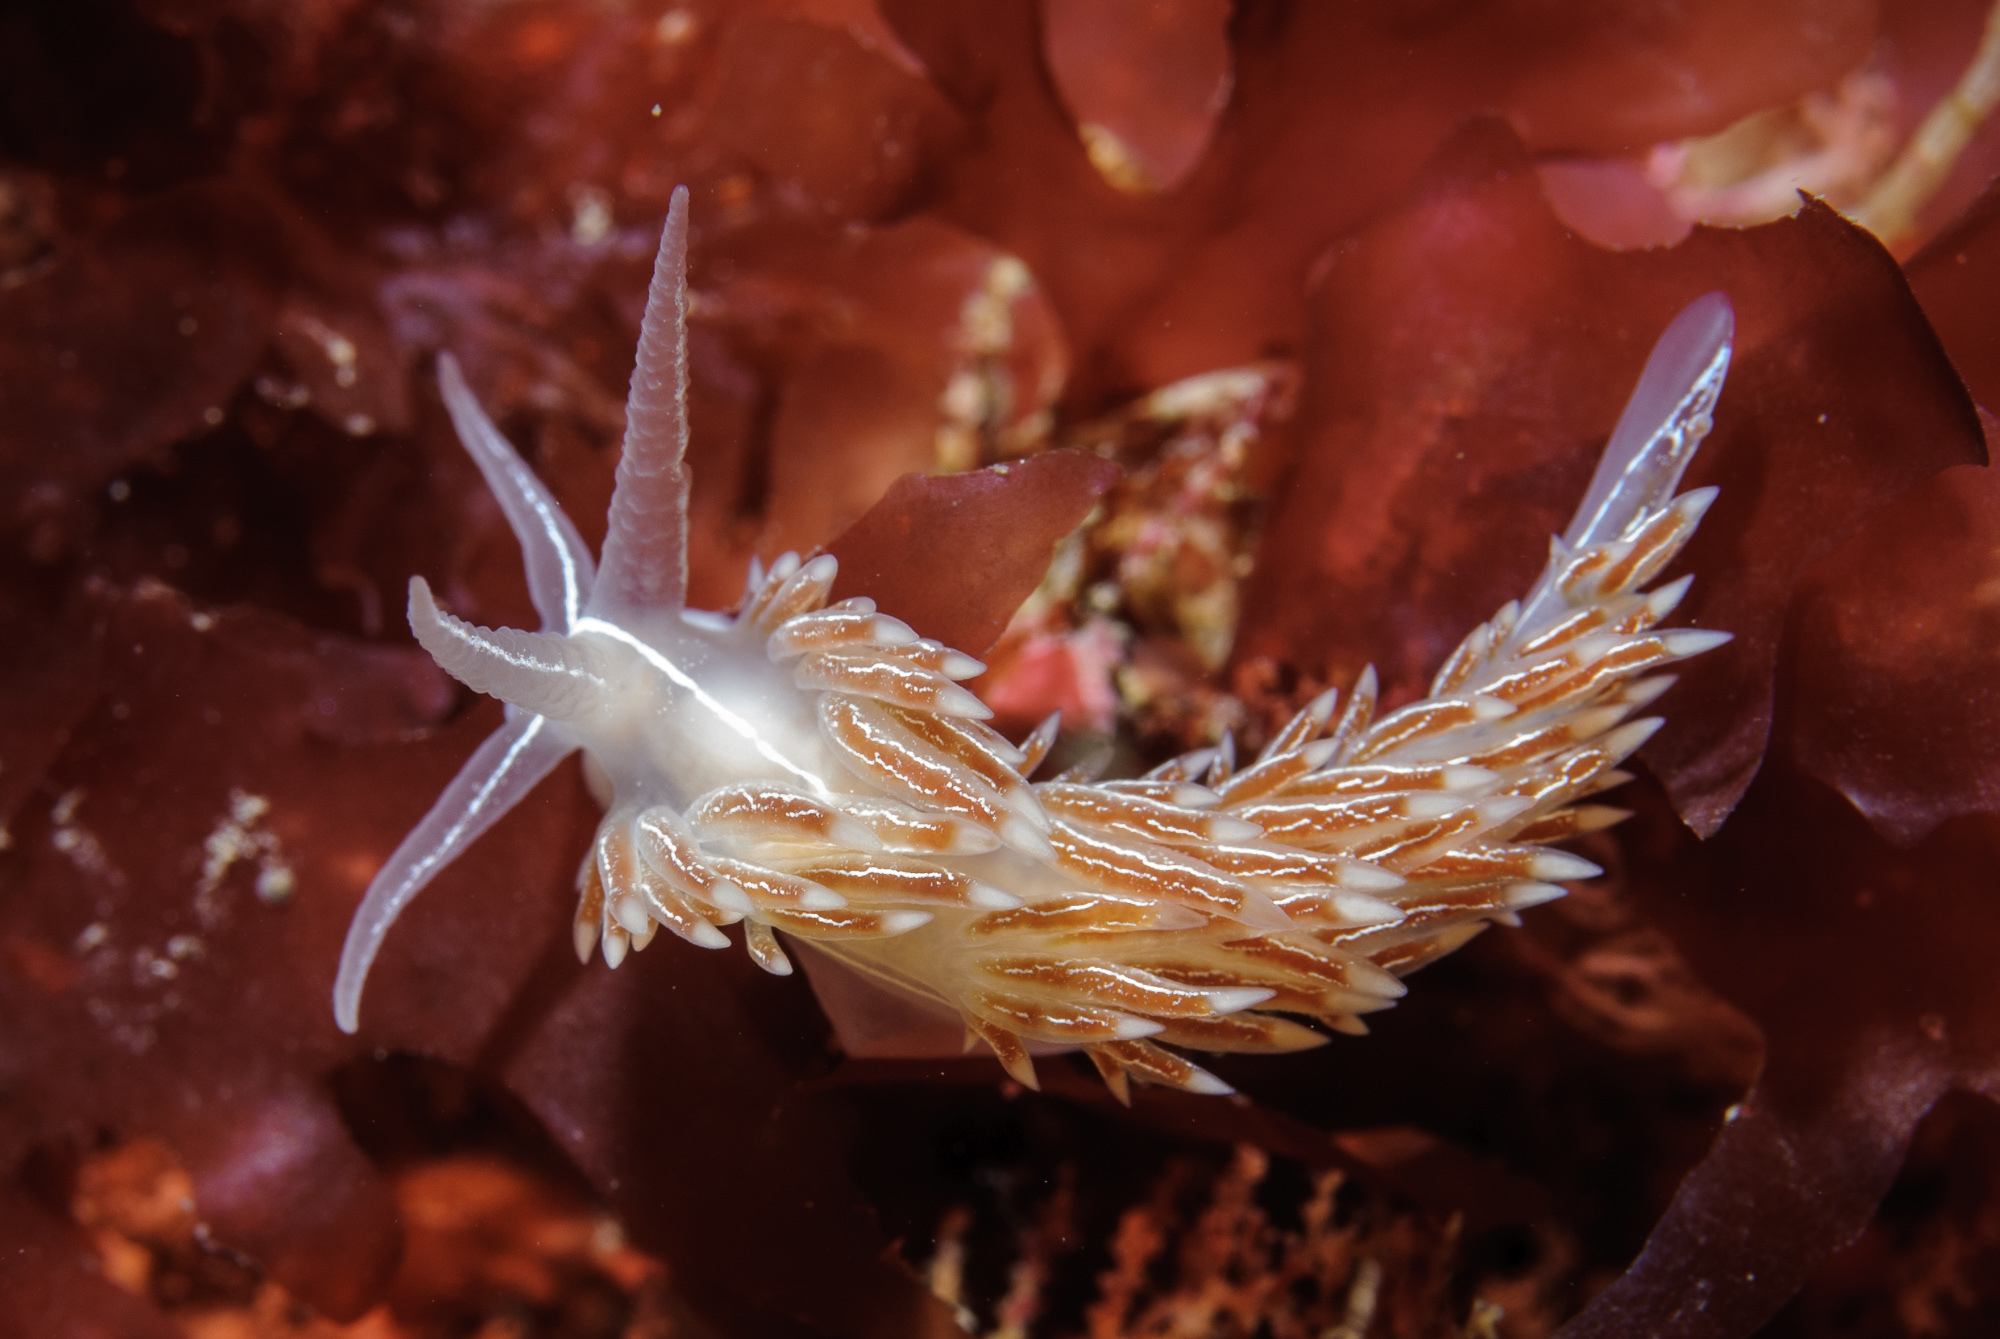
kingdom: Animalia
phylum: Mollusca
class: Gastropoda
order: Nudibranchia
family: Coryphellidae
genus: Coryphella
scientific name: Coryphella chriskaugei
